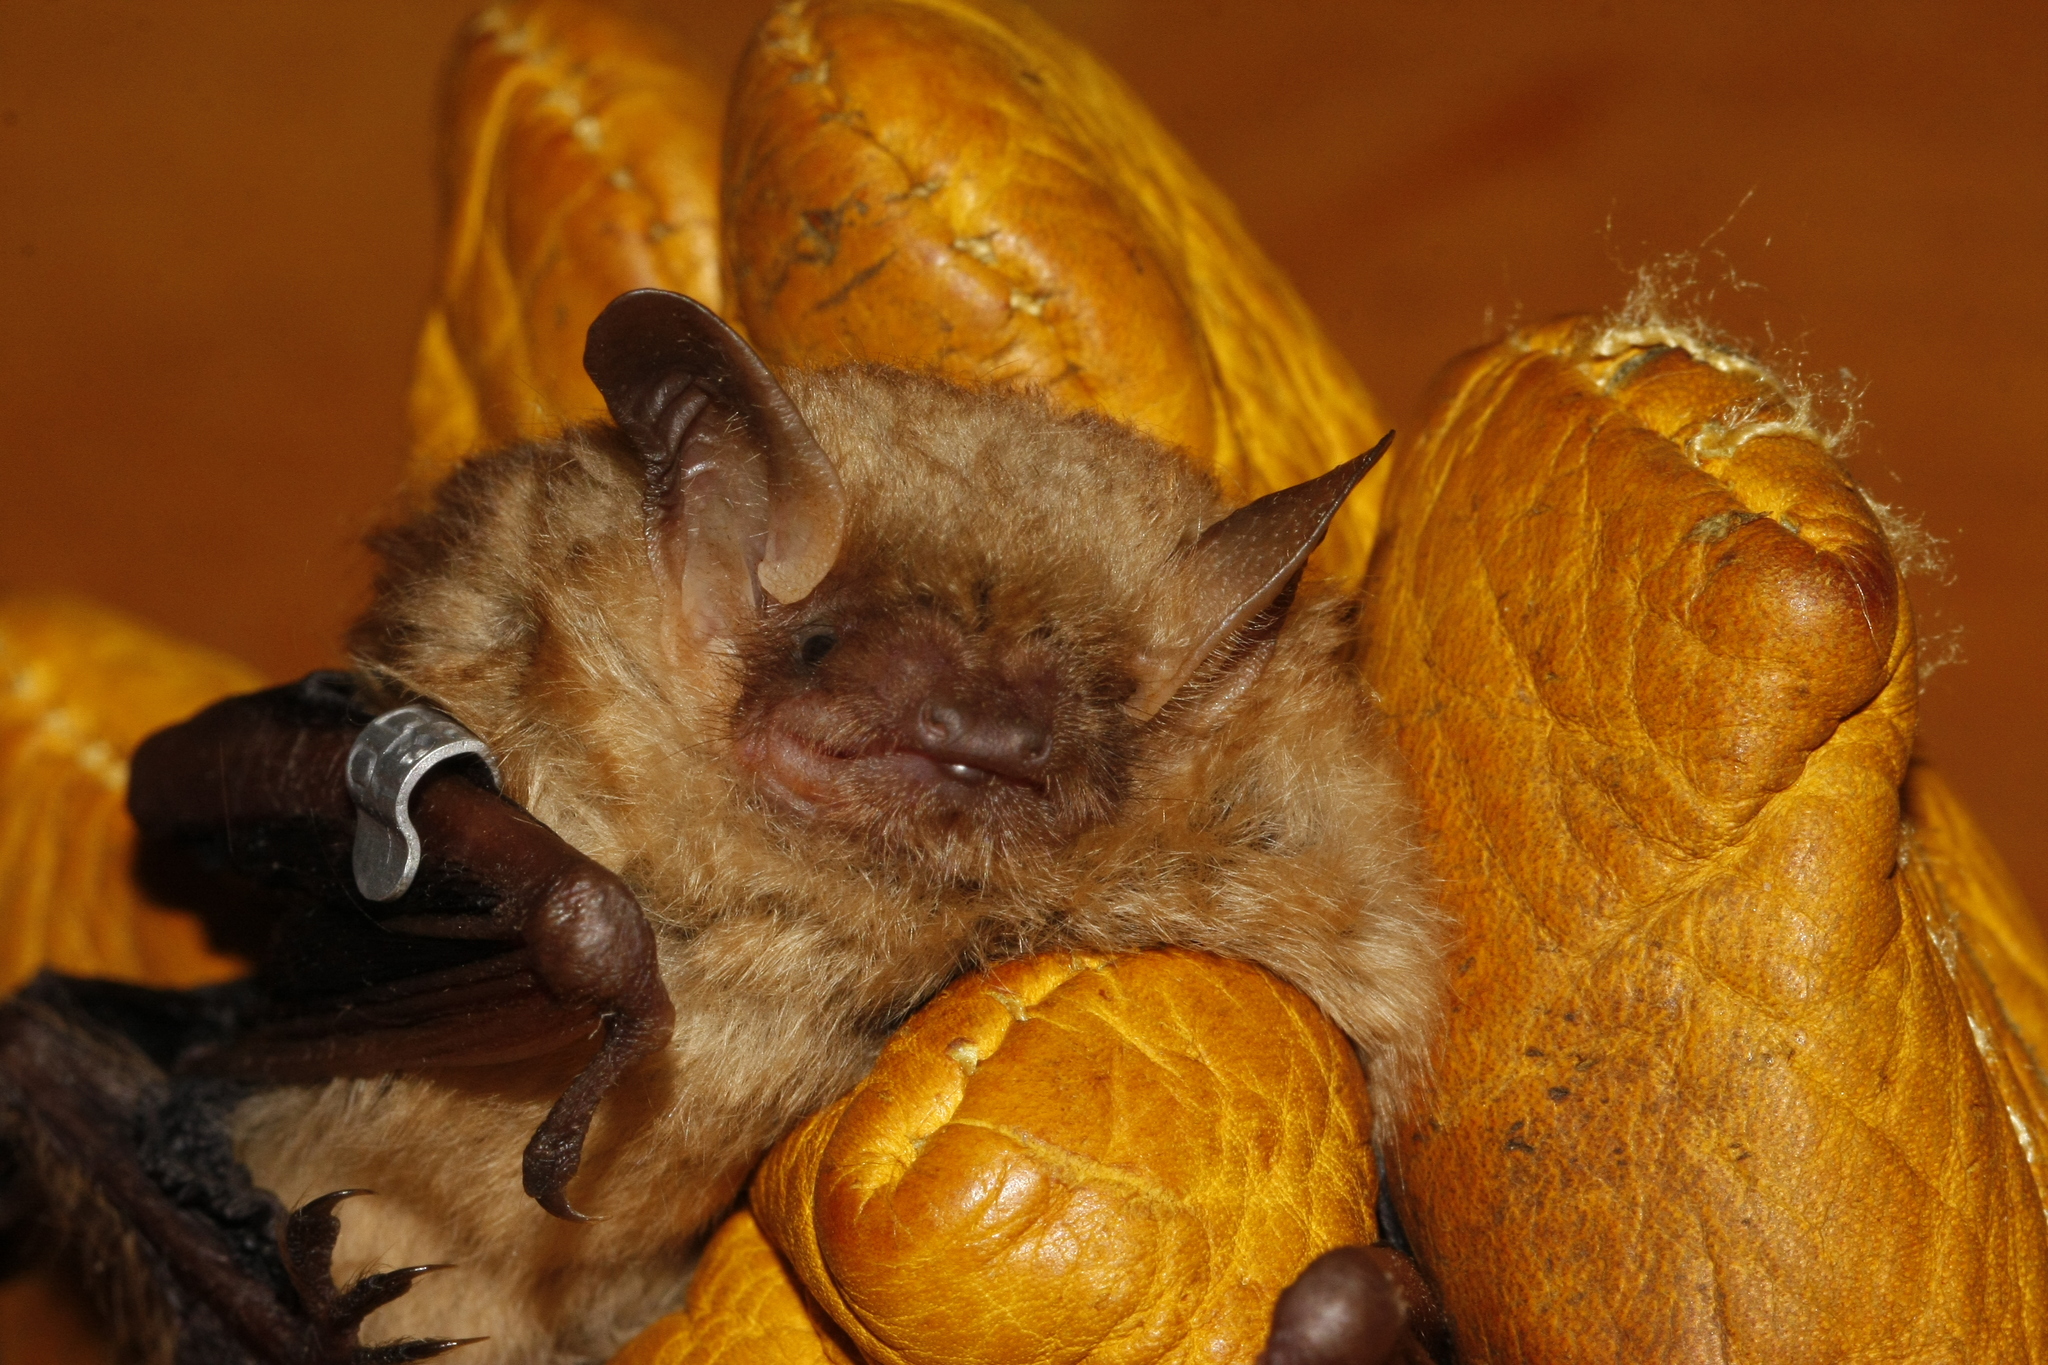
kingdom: Animalia
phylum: Chordata
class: Mammalia
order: Chiroptera
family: Vespertilionidae
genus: Perimyotis
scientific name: Perimyotis subflavus
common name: Eastern pipistrelle
